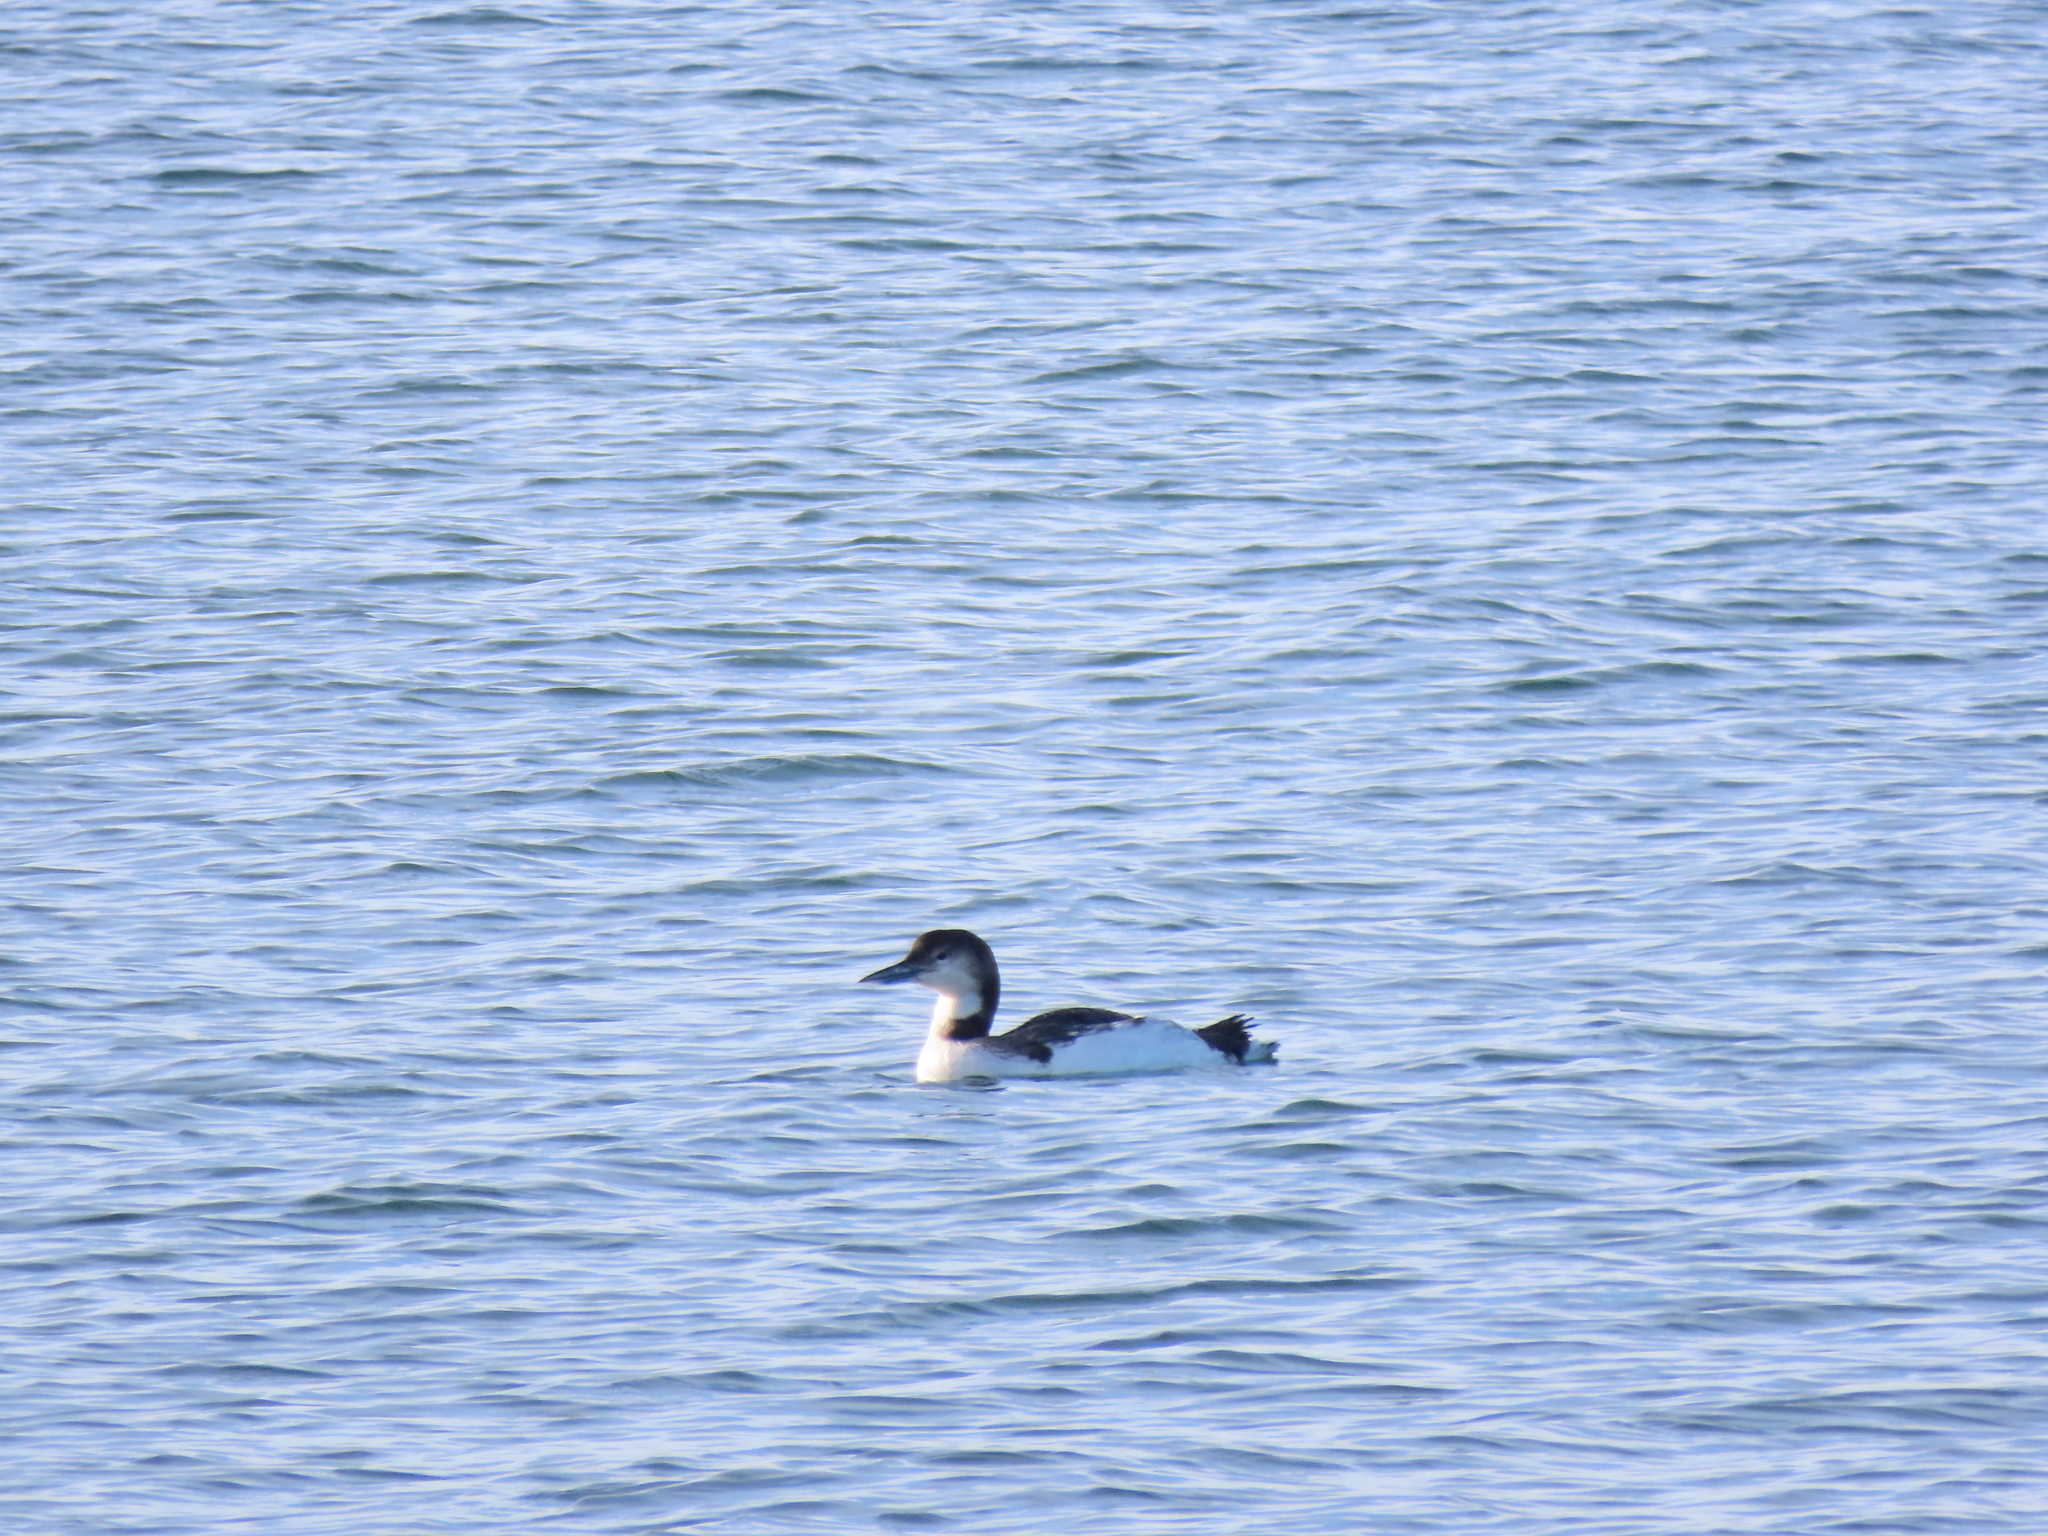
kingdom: Animalia
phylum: Chordata
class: Aves
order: Gaviiformes
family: Gaviidae
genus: Gavia
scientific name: Gavia immer
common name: Common loon
